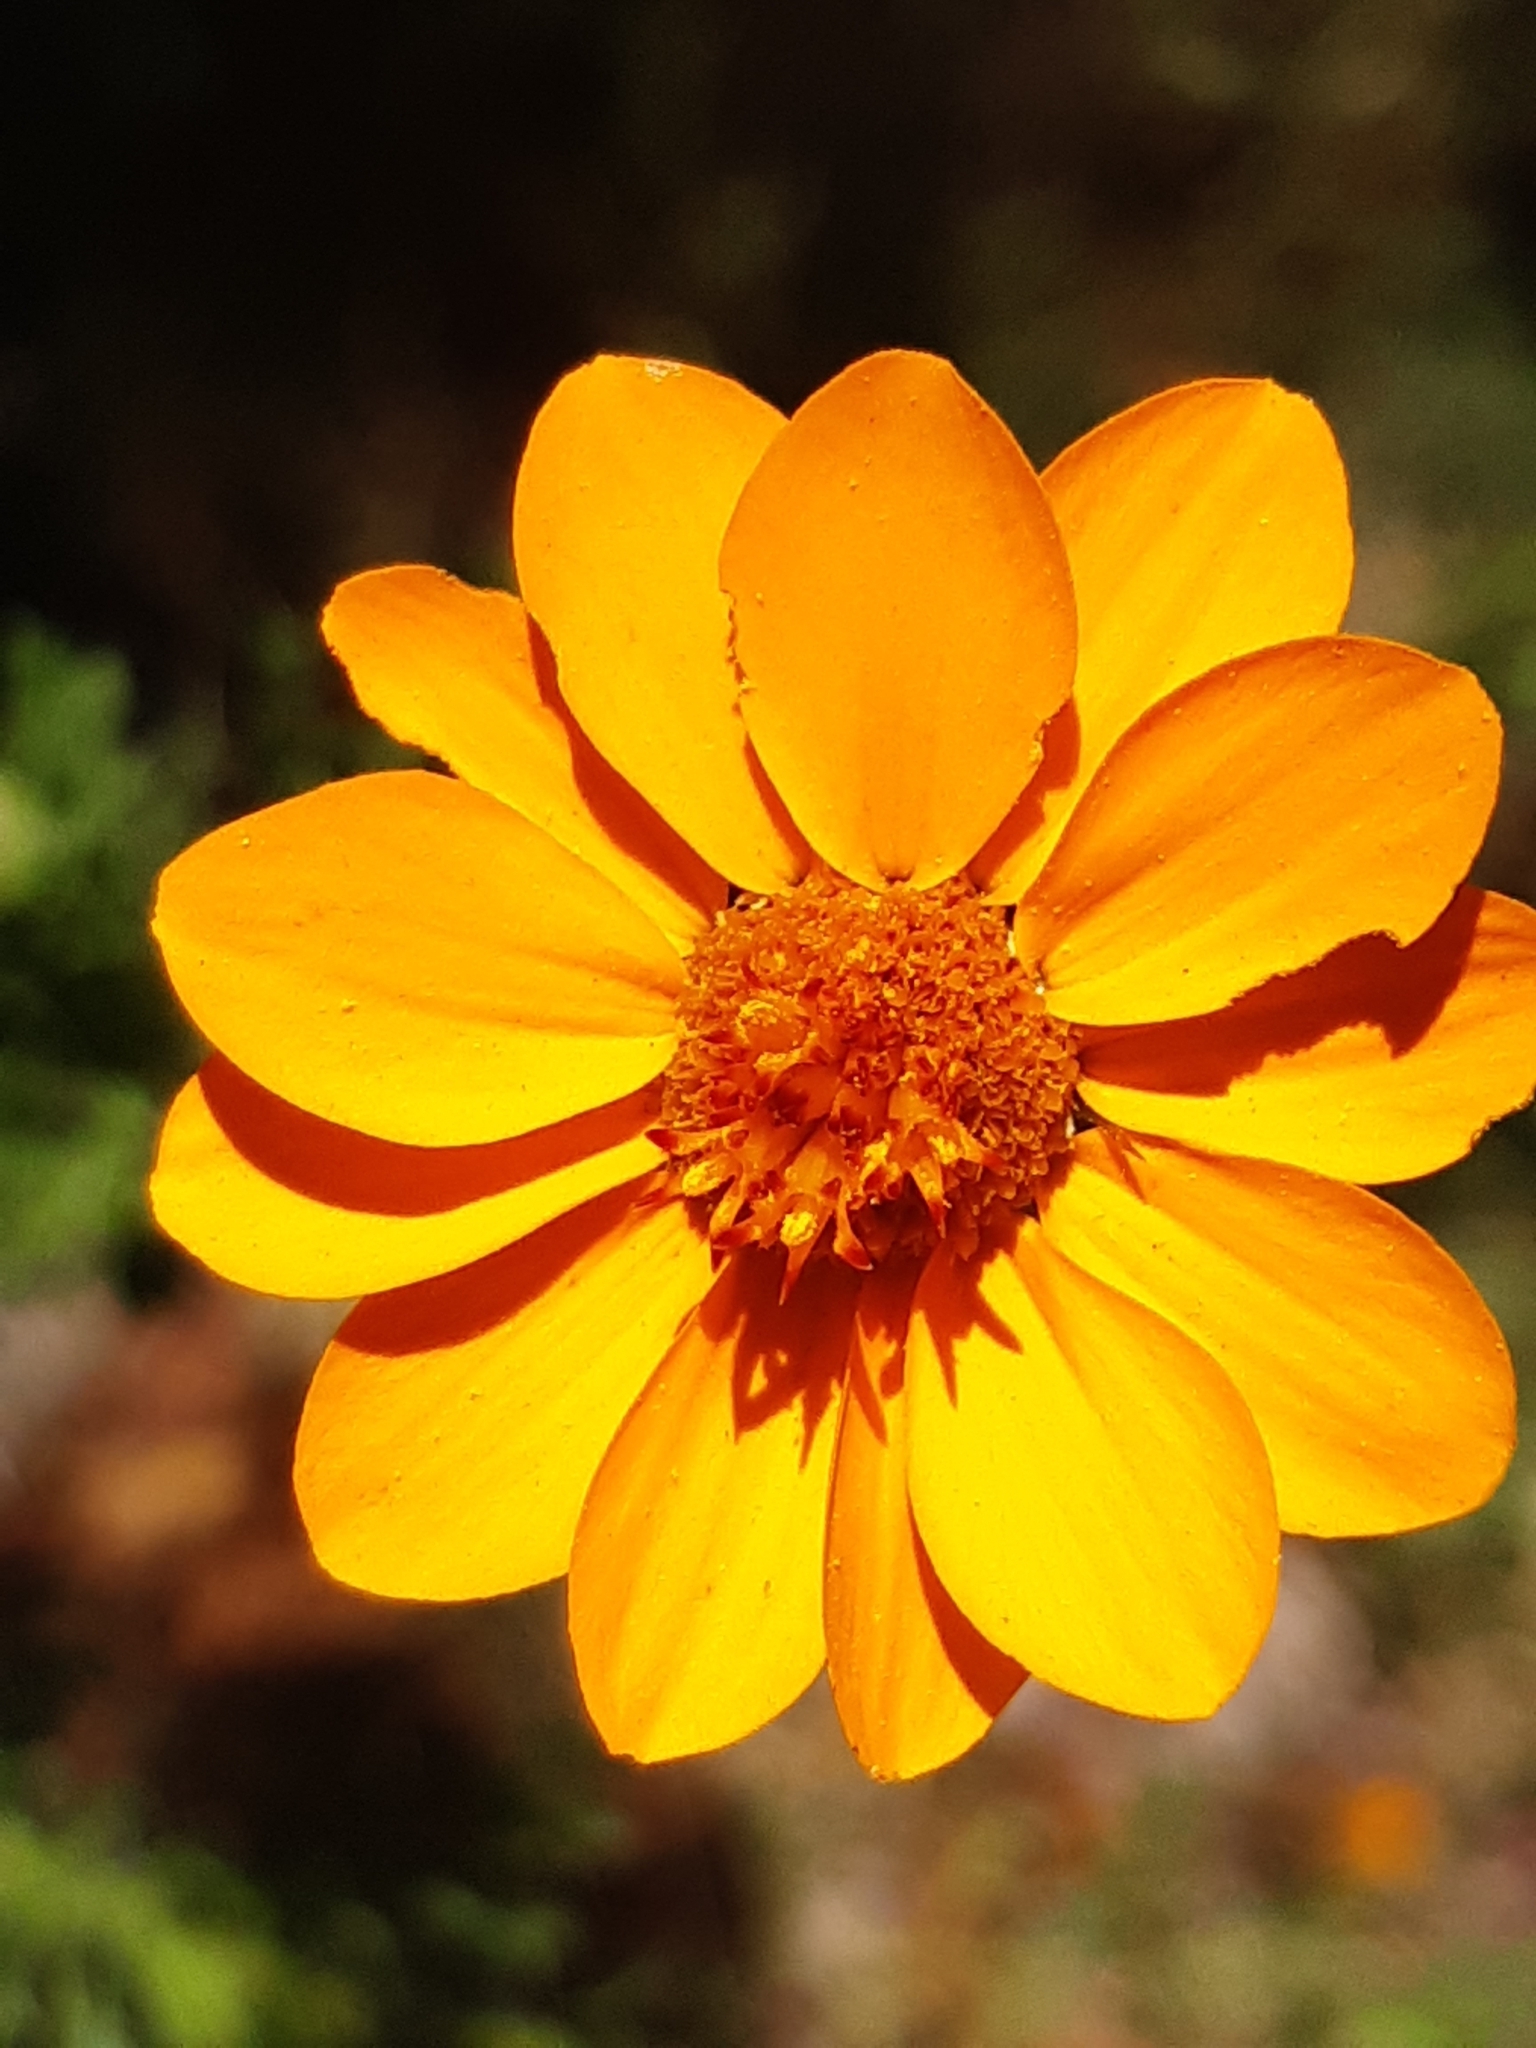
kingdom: Plantae
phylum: Tracheophyta
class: Magnoliopsida
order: Asterales
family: Asteraceae
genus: Adenophyllum
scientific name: Adenophyllum cancellatum
